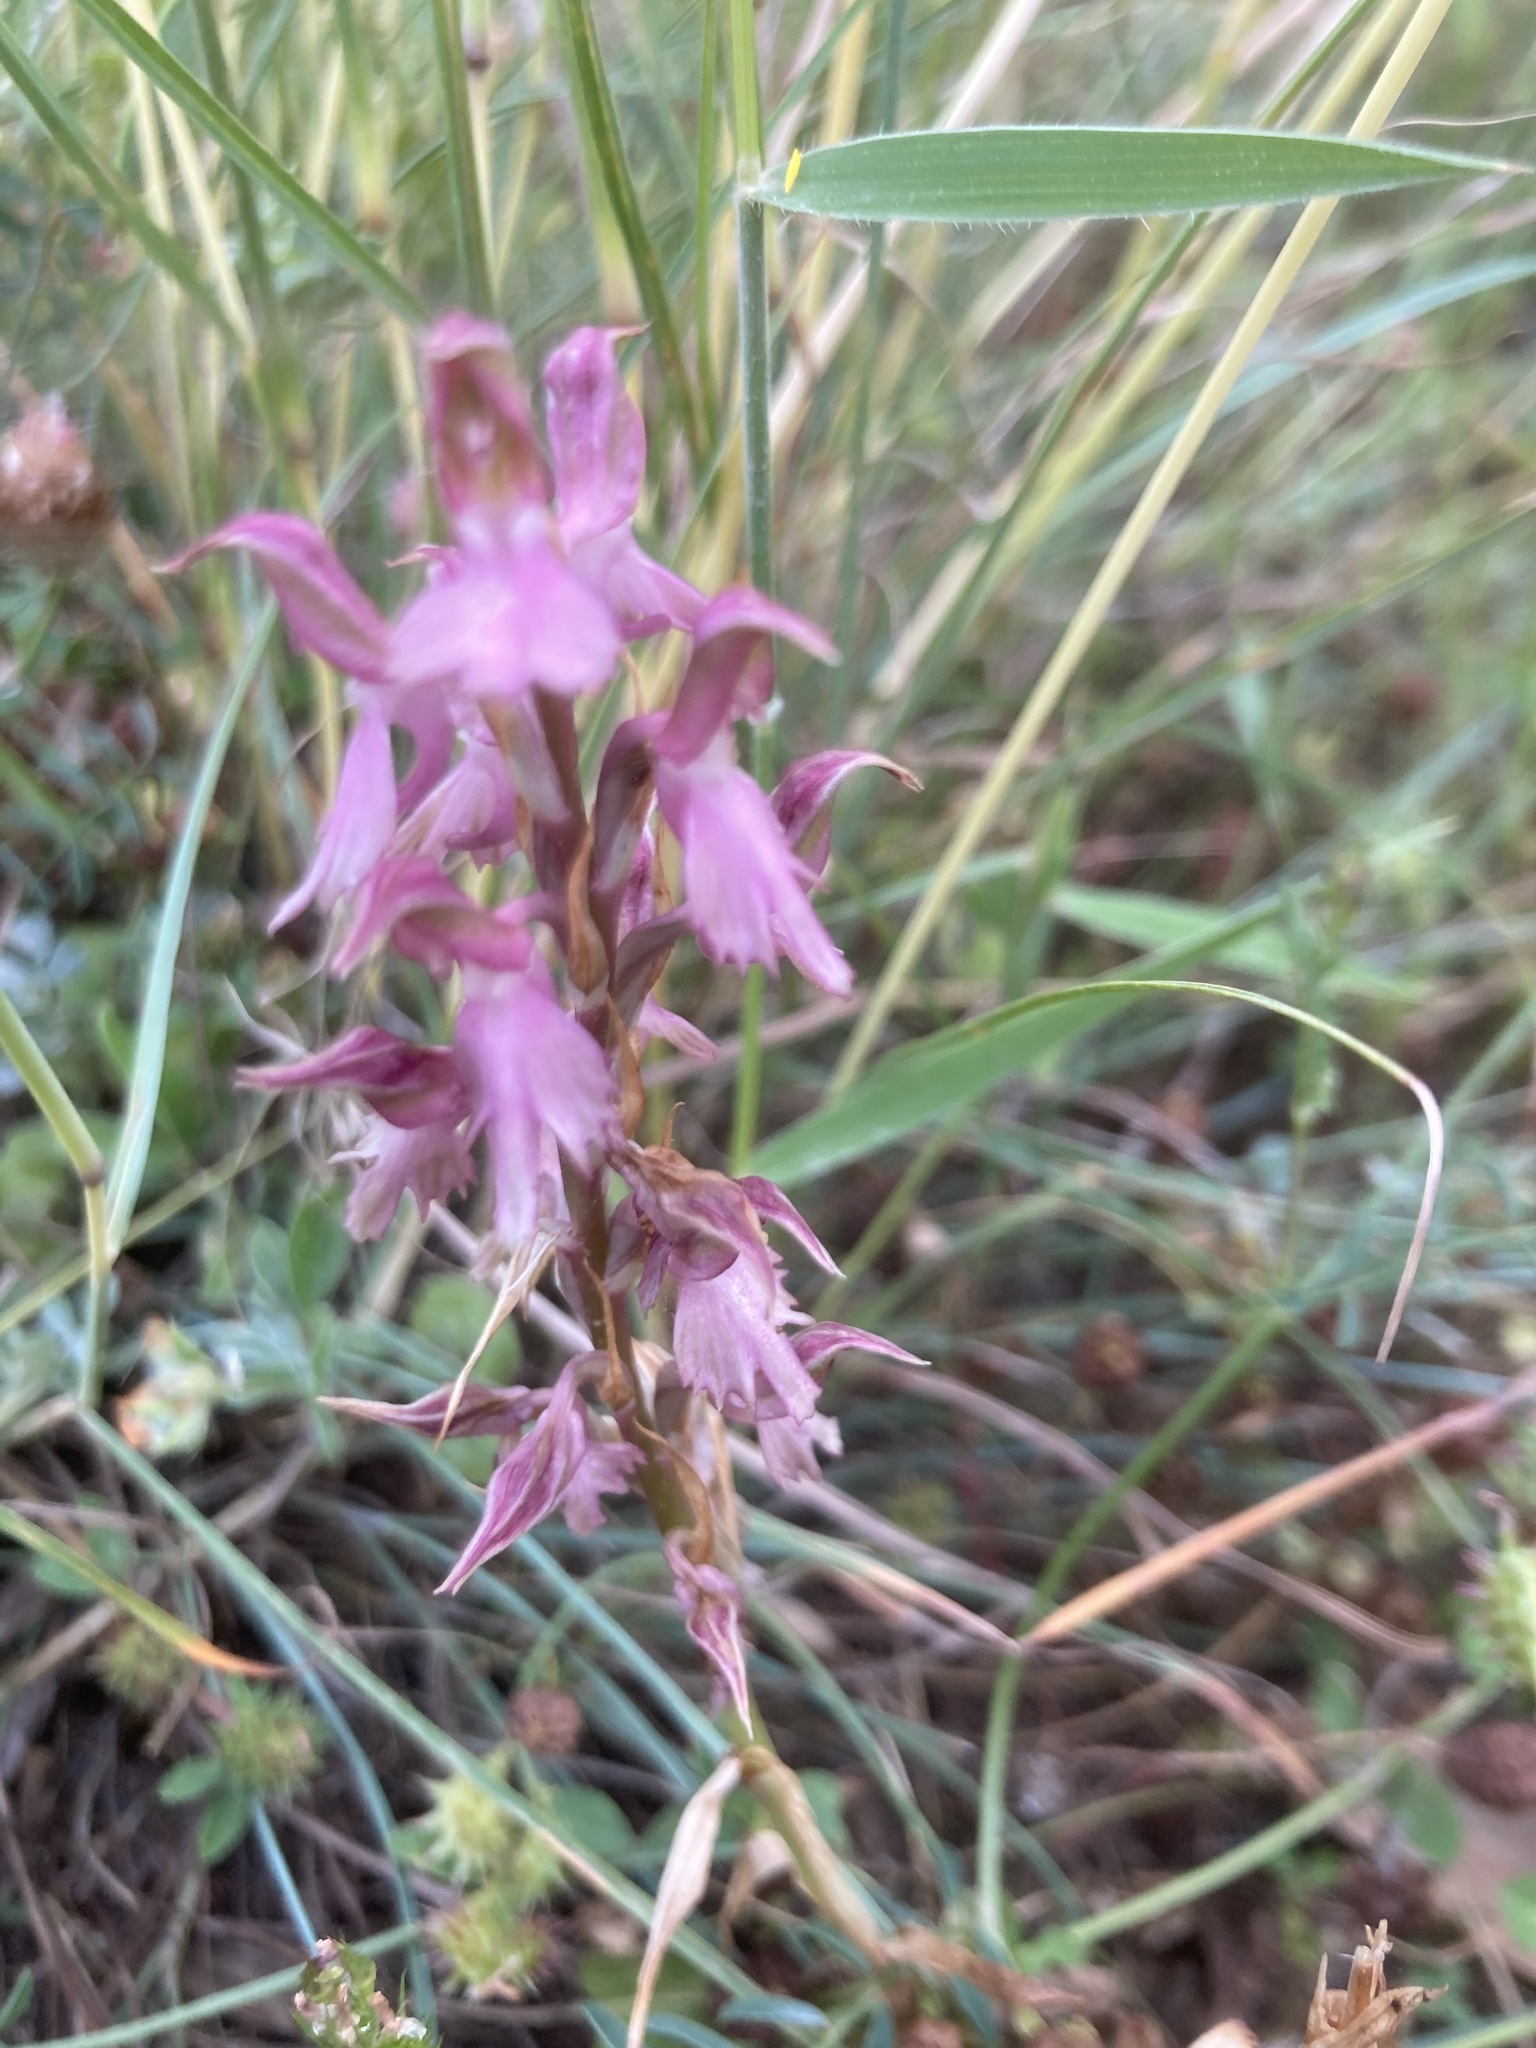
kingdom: Plantae
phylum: Tracheophyta
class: Liliopsida
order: Asparagales
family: Orchidaceae
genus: Anacamptis
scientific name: Anacamptis sancta
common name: Holy orchid
